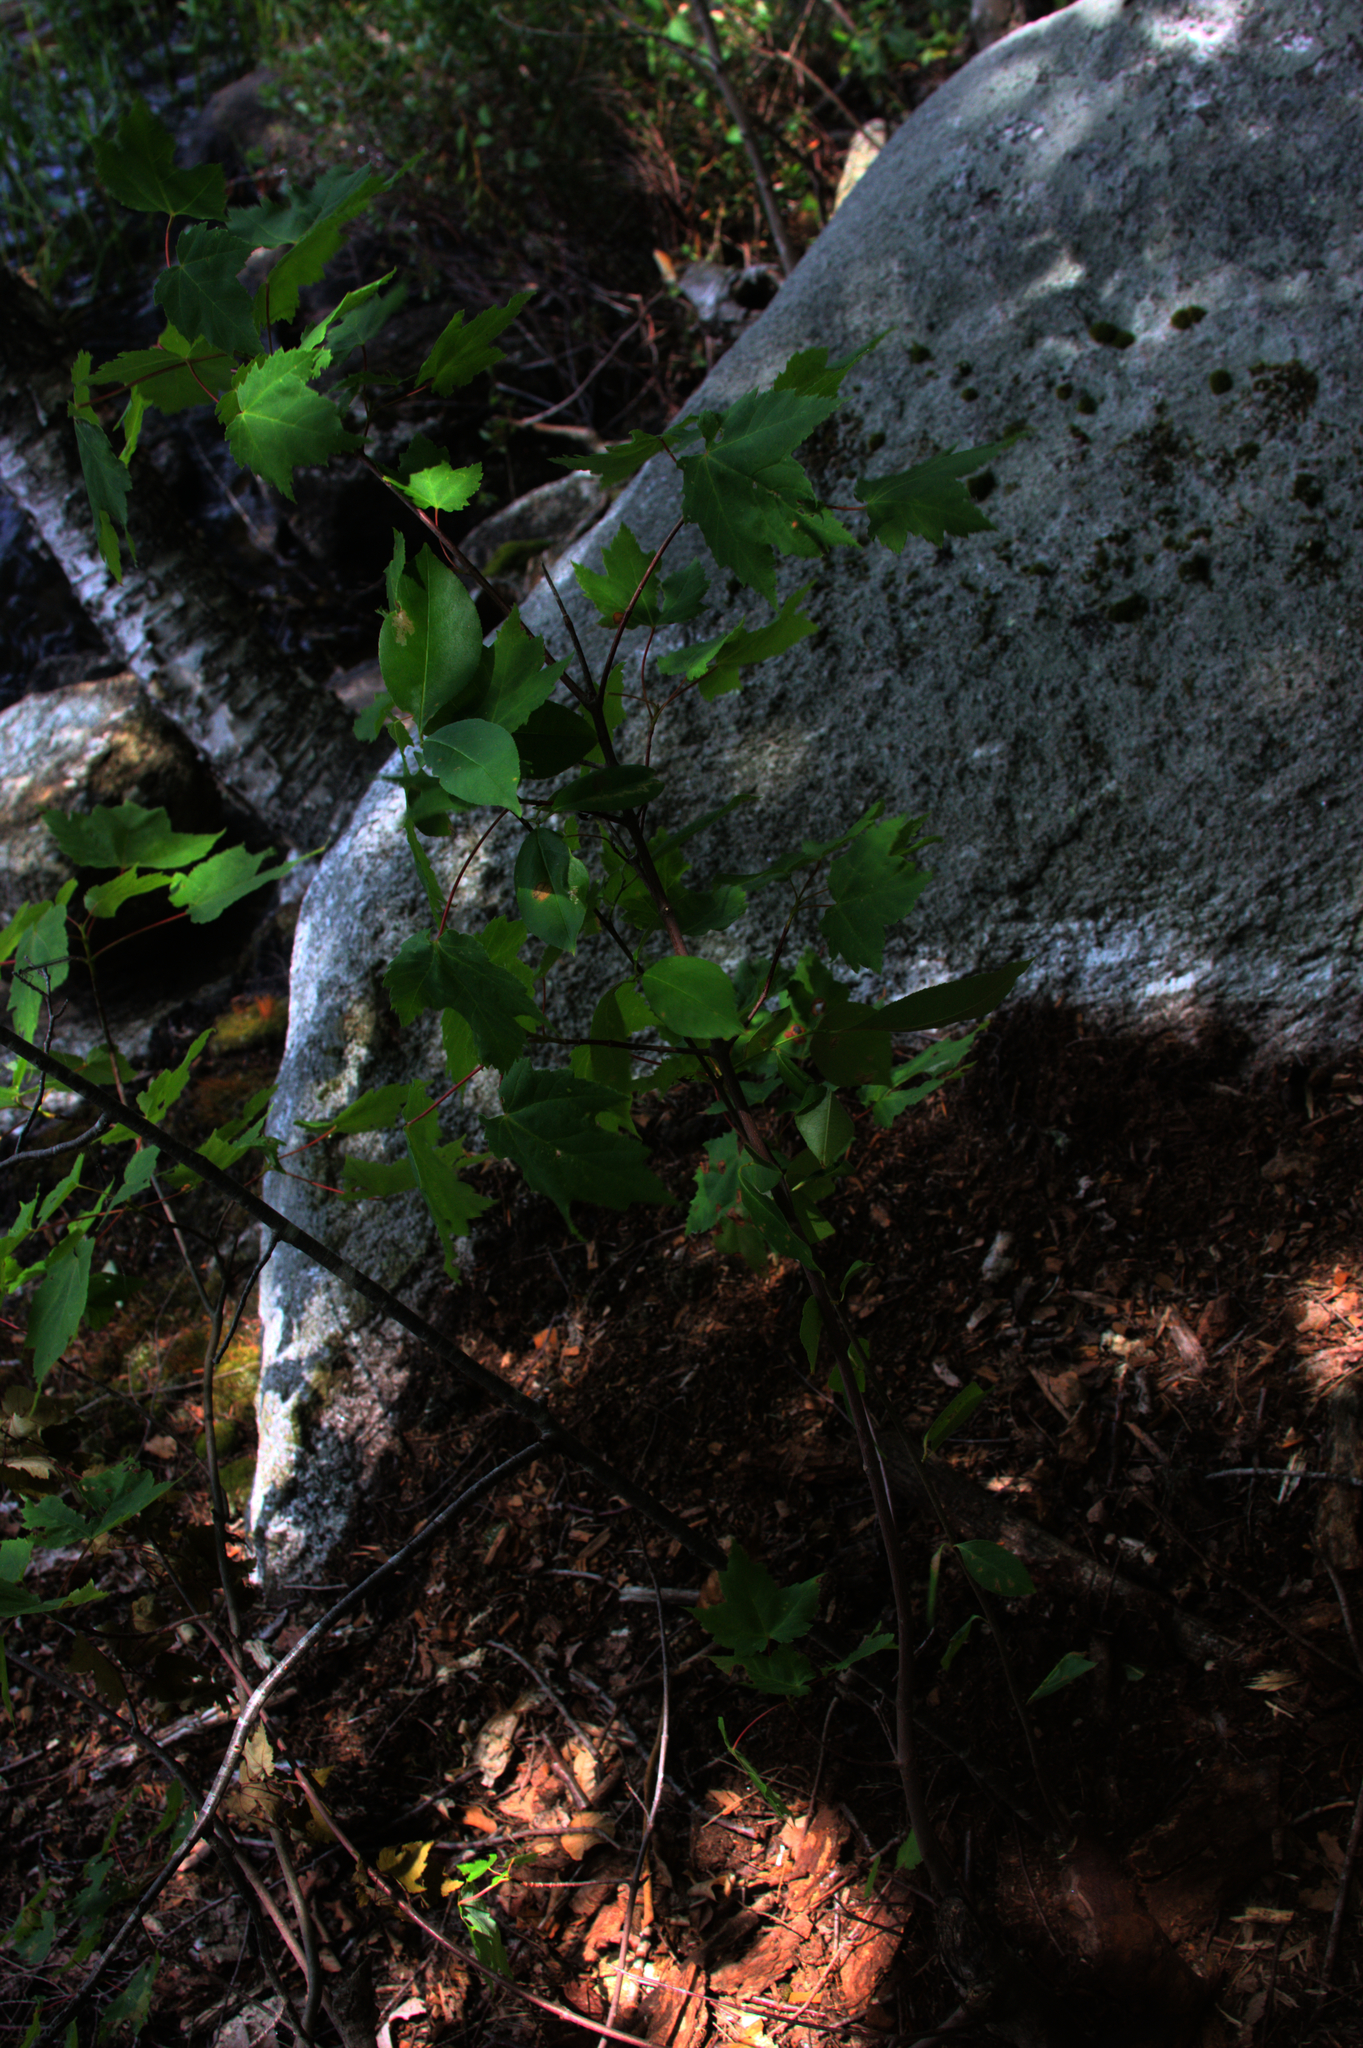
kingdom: Plantae
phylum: Tracheophyta
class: Magnoliopsida
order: Sapindales
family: Sapindaceae
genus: Acer
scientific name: Acer rubrum
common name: Red maple
